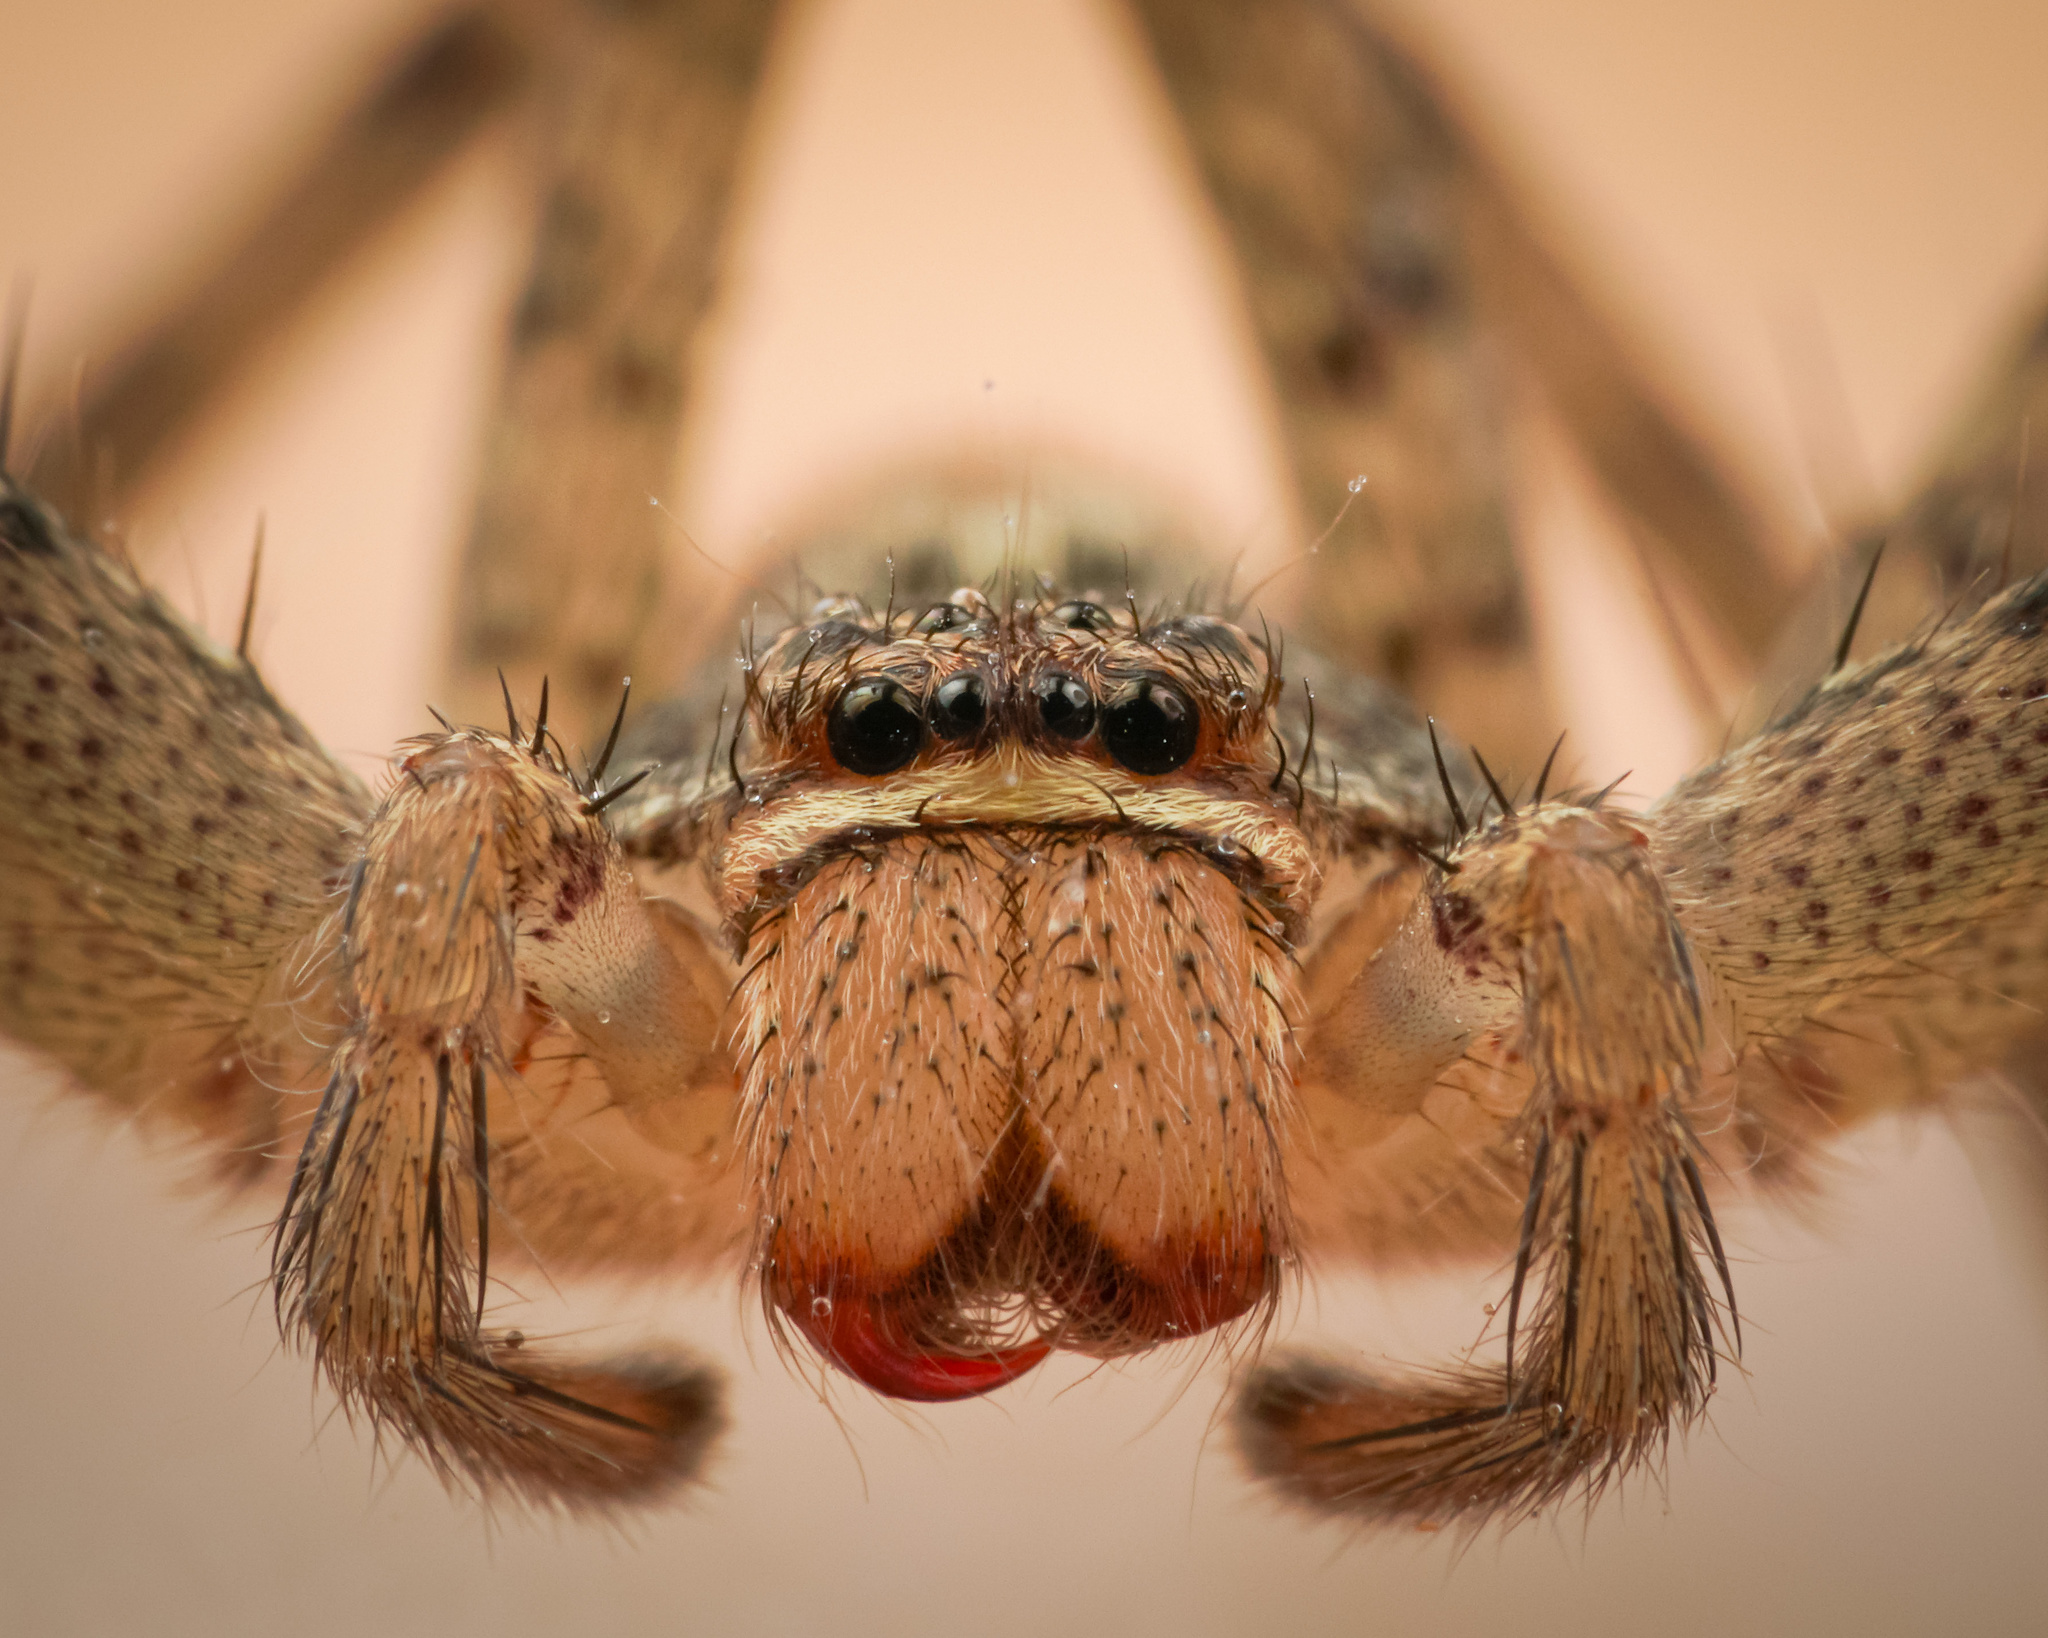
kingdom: Animalia
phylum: Arthropoda
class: Arachnida
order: Araneae
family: Sparassidae
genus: Heteropoda
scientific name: Heteropoda venatoria
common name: Huntsman spider
